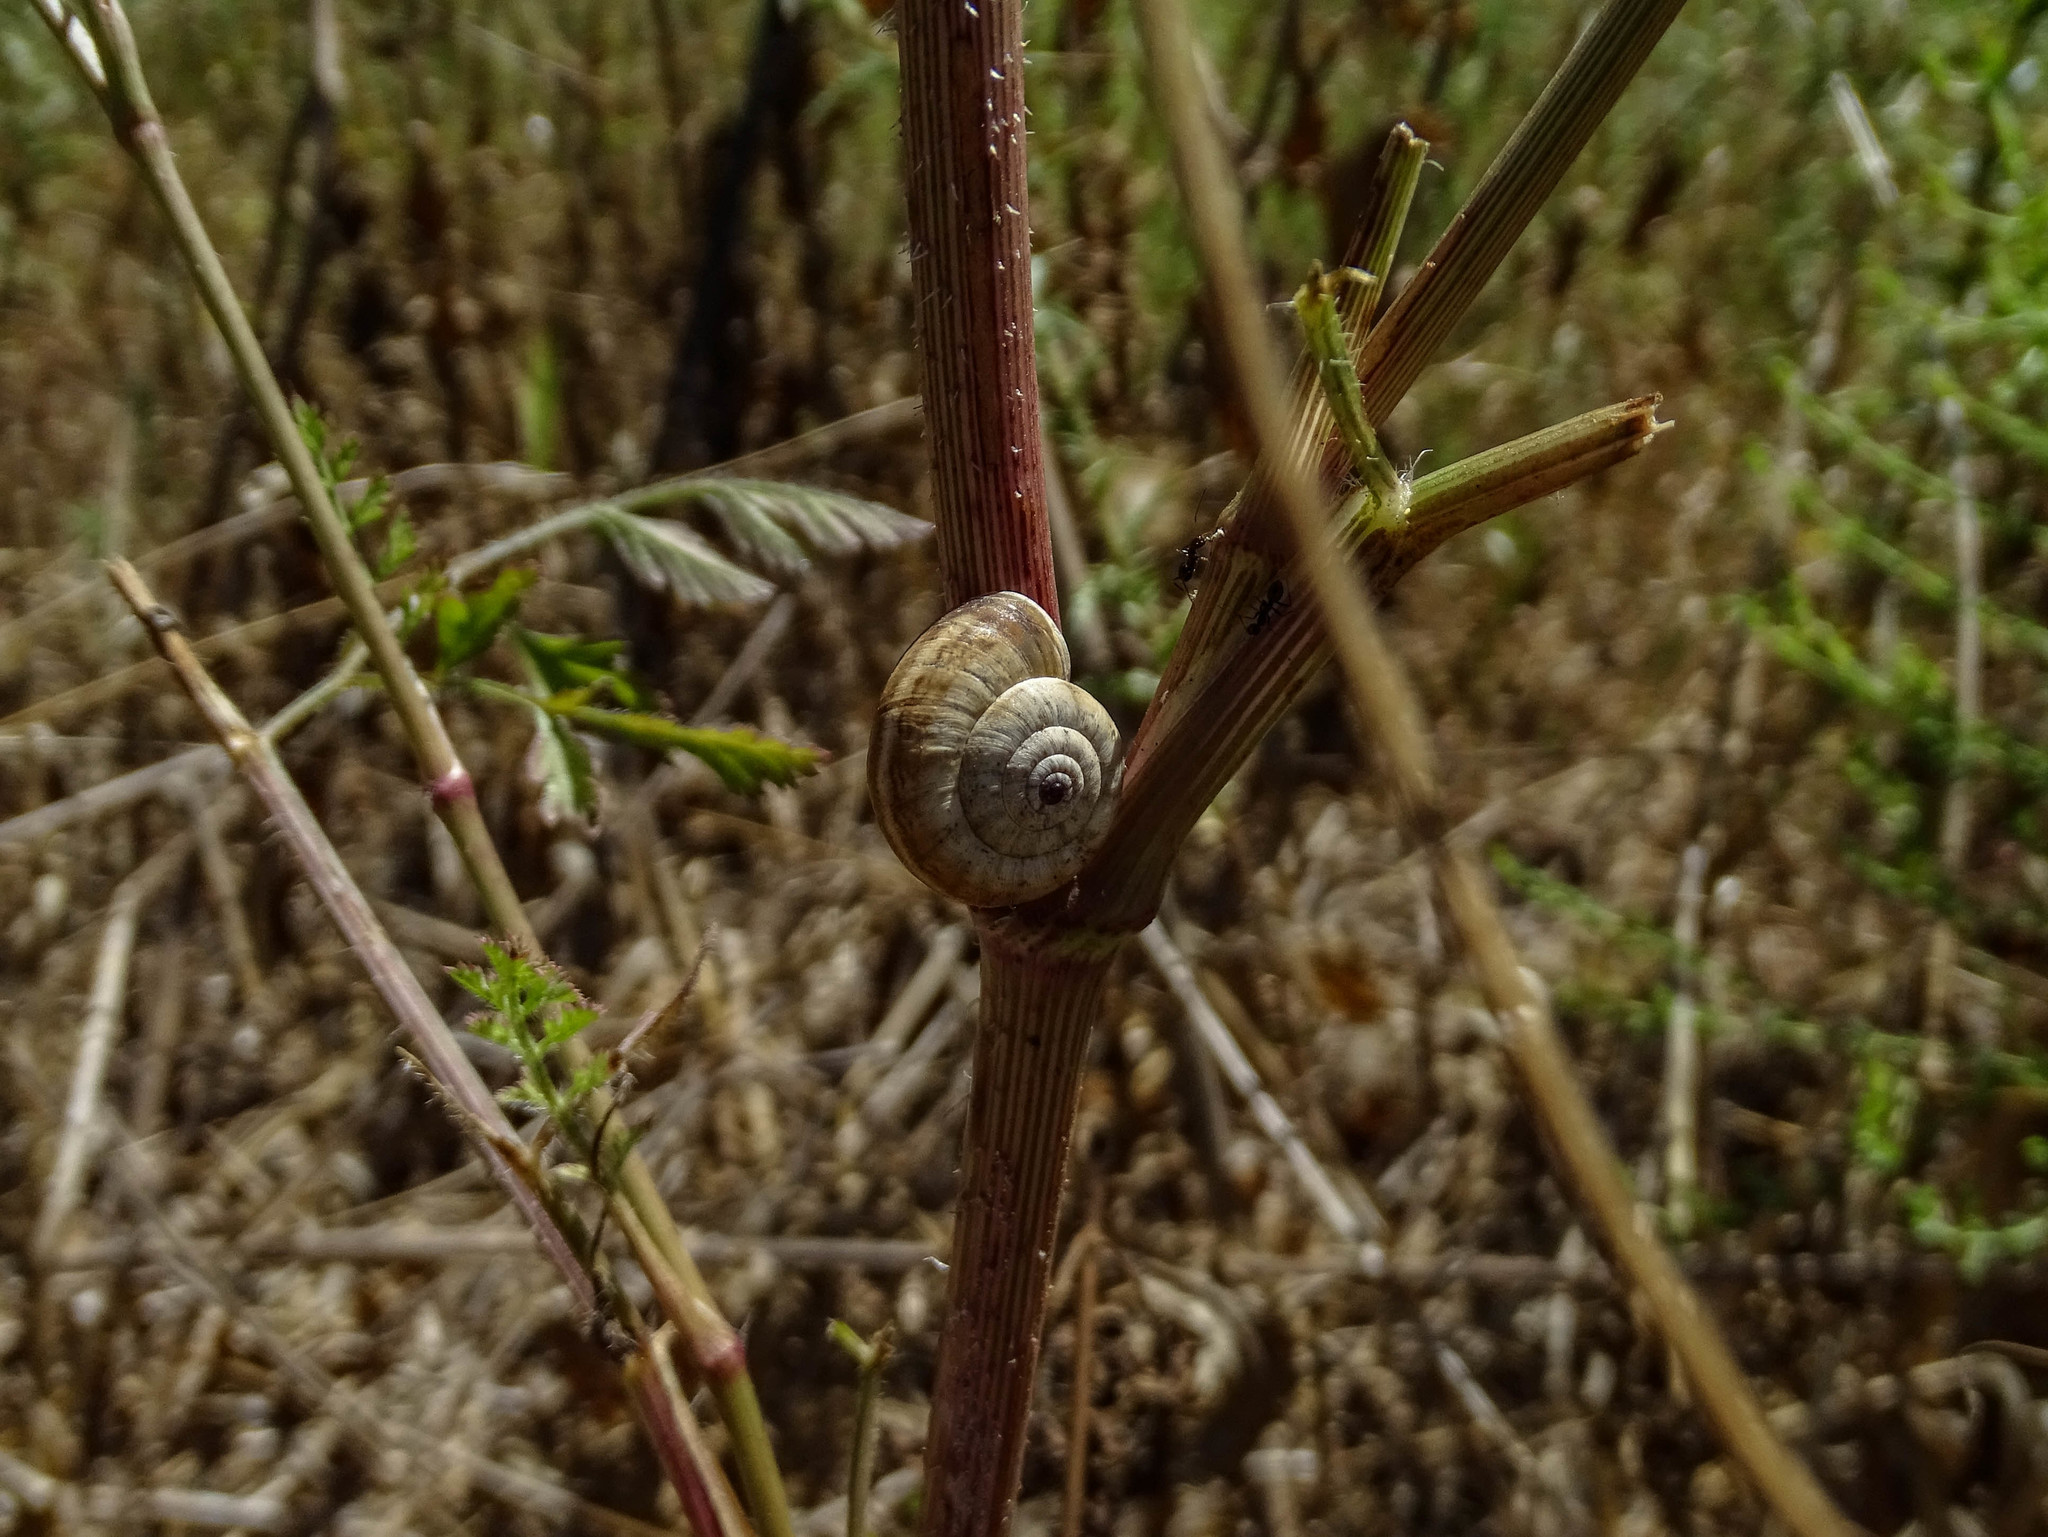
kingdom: Animalia
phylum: Mollusca
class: Gastropoda
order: Stylommatophora
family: Geomitridae
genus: Xeropicta
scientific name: Xeropicta krynickii
